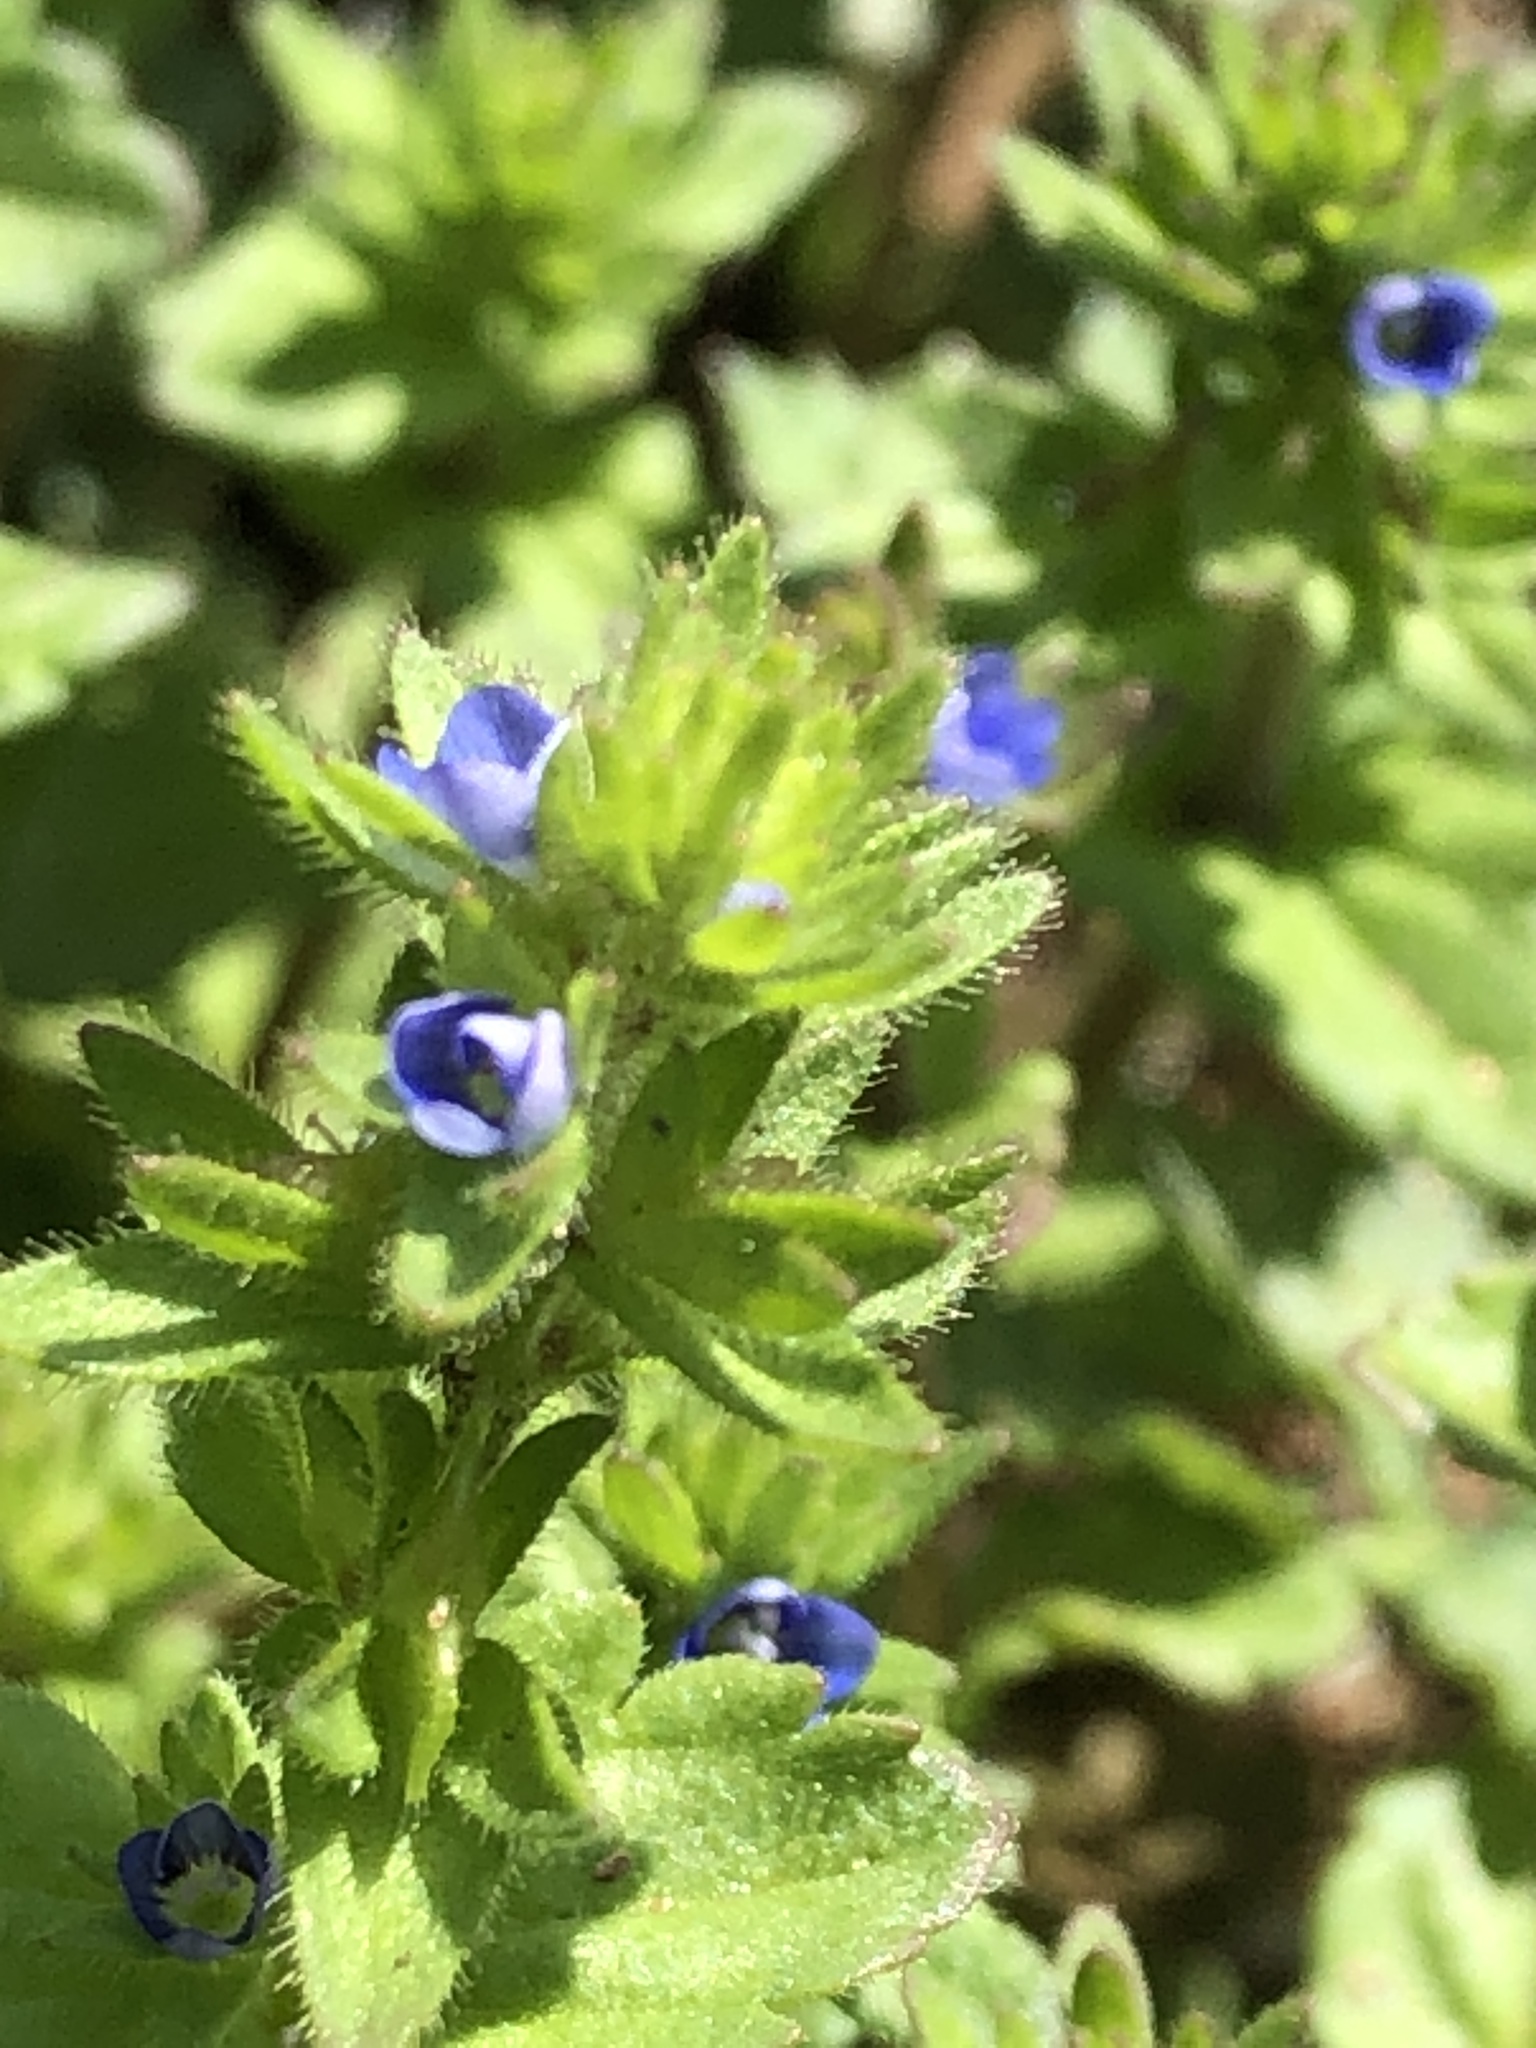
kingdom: Plantae
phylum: Tracheophyta
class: Magnoliopsida
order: Lamiales
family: Plantaginaceae
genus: Veronica
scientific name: Veronica arvensis
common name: Corn speedwell
